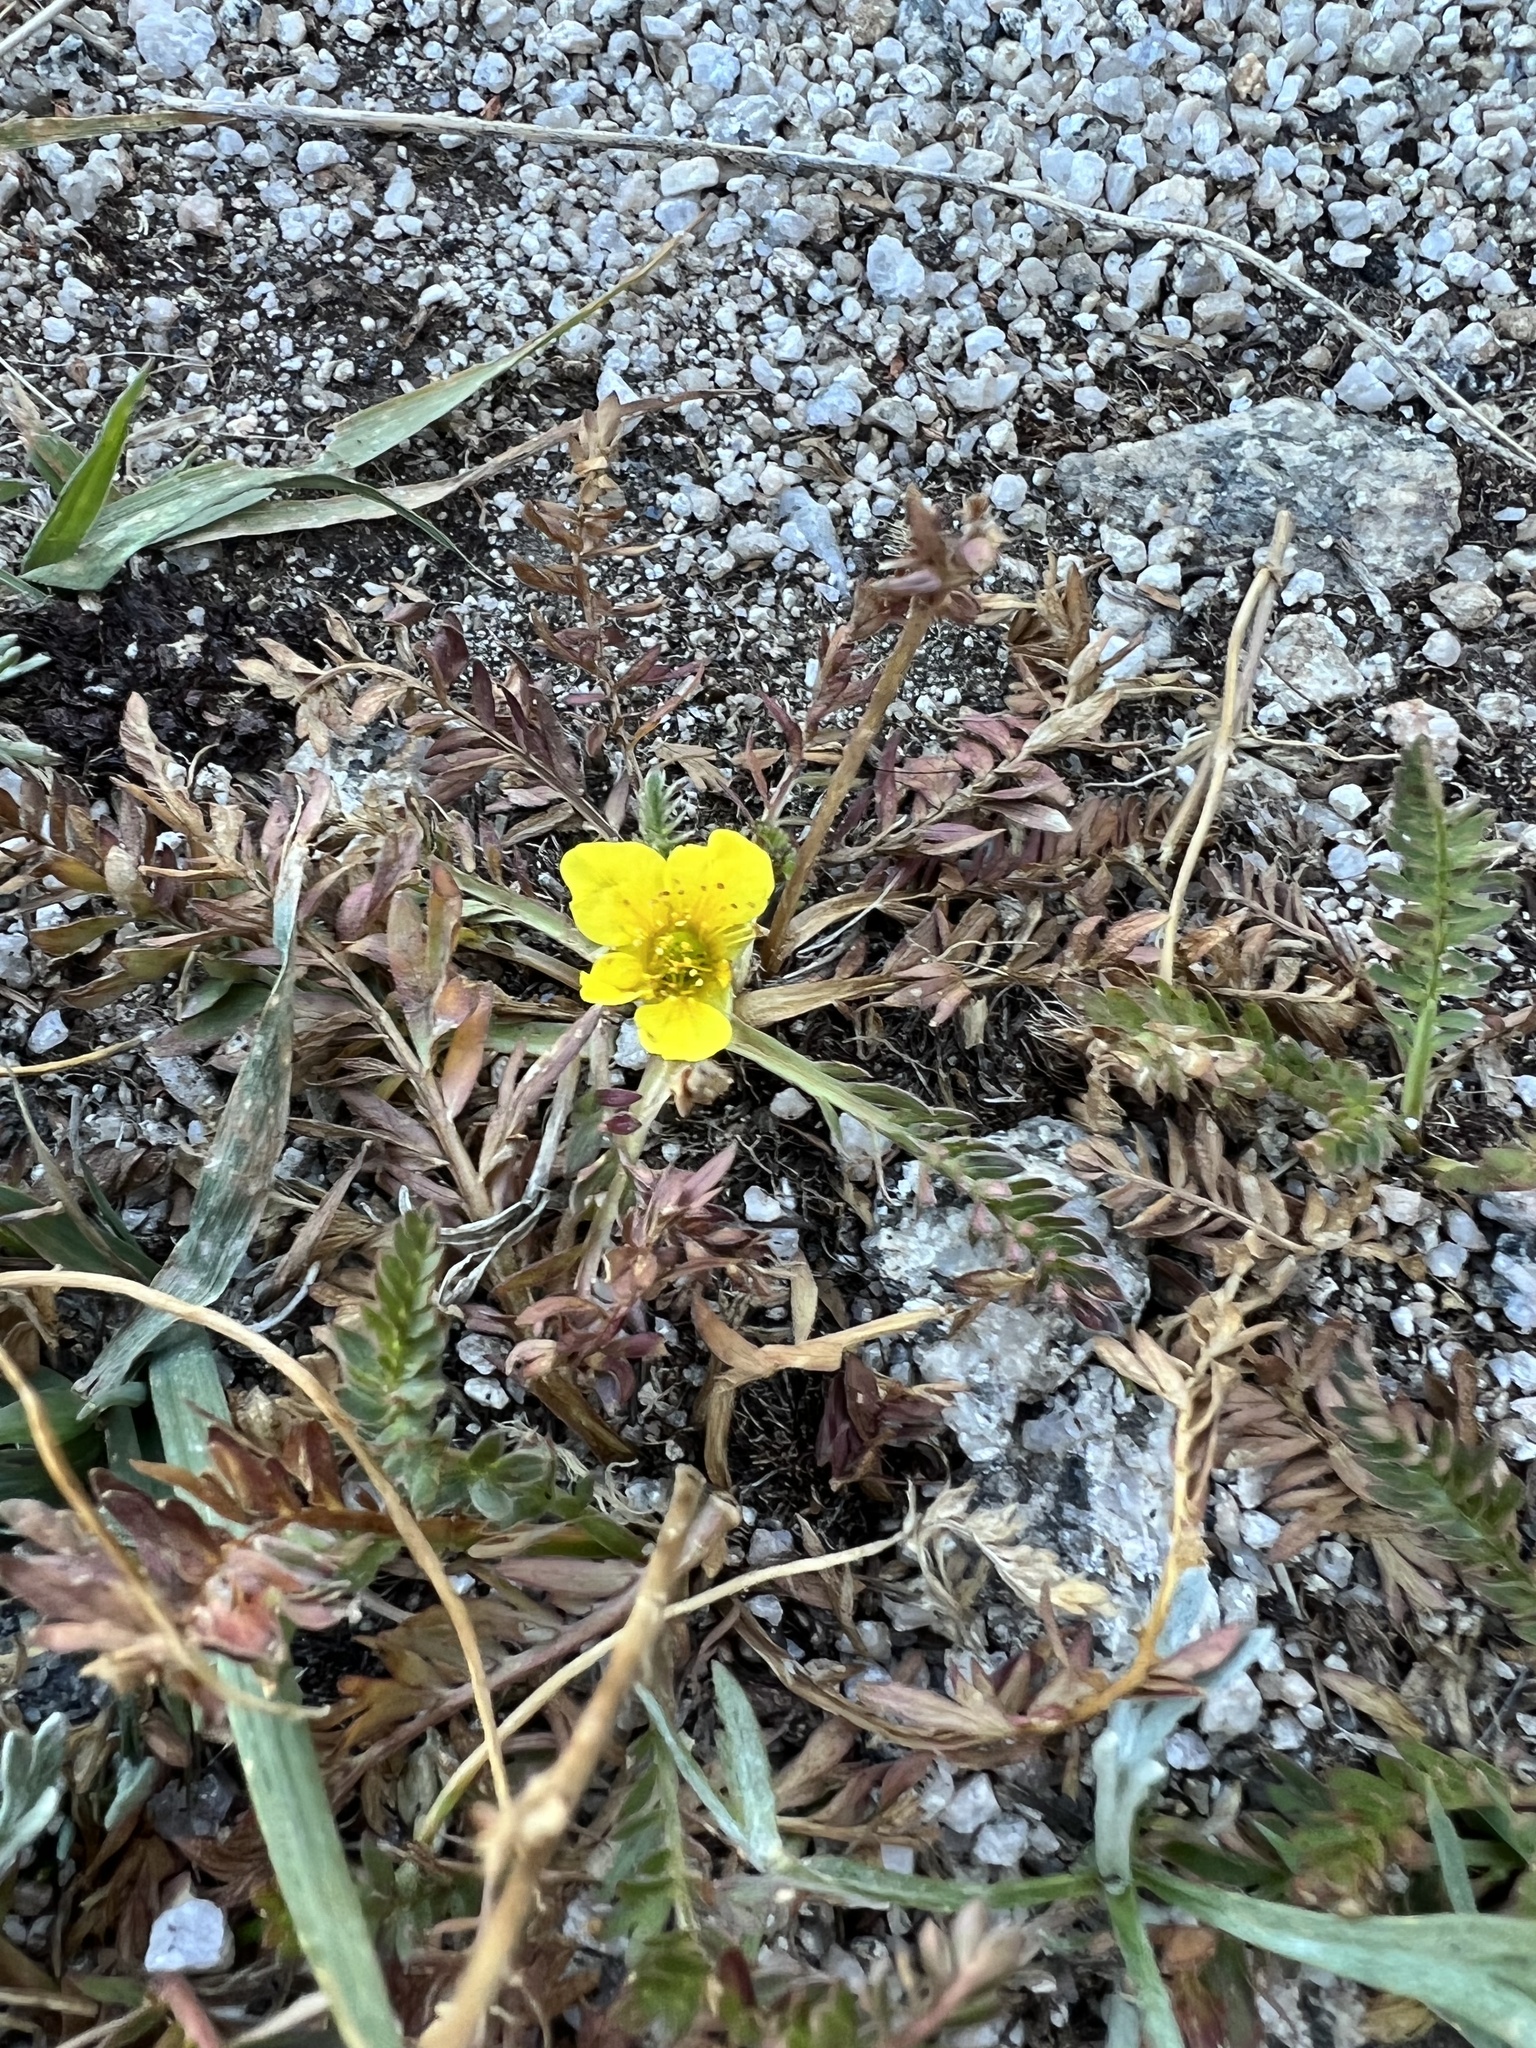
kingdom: Plantae
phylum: Tracheophyta
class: Magnoliopsida
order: Rosales
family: Rosaceae
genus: Geum
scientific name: Geum rossii
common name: Alpine avens
